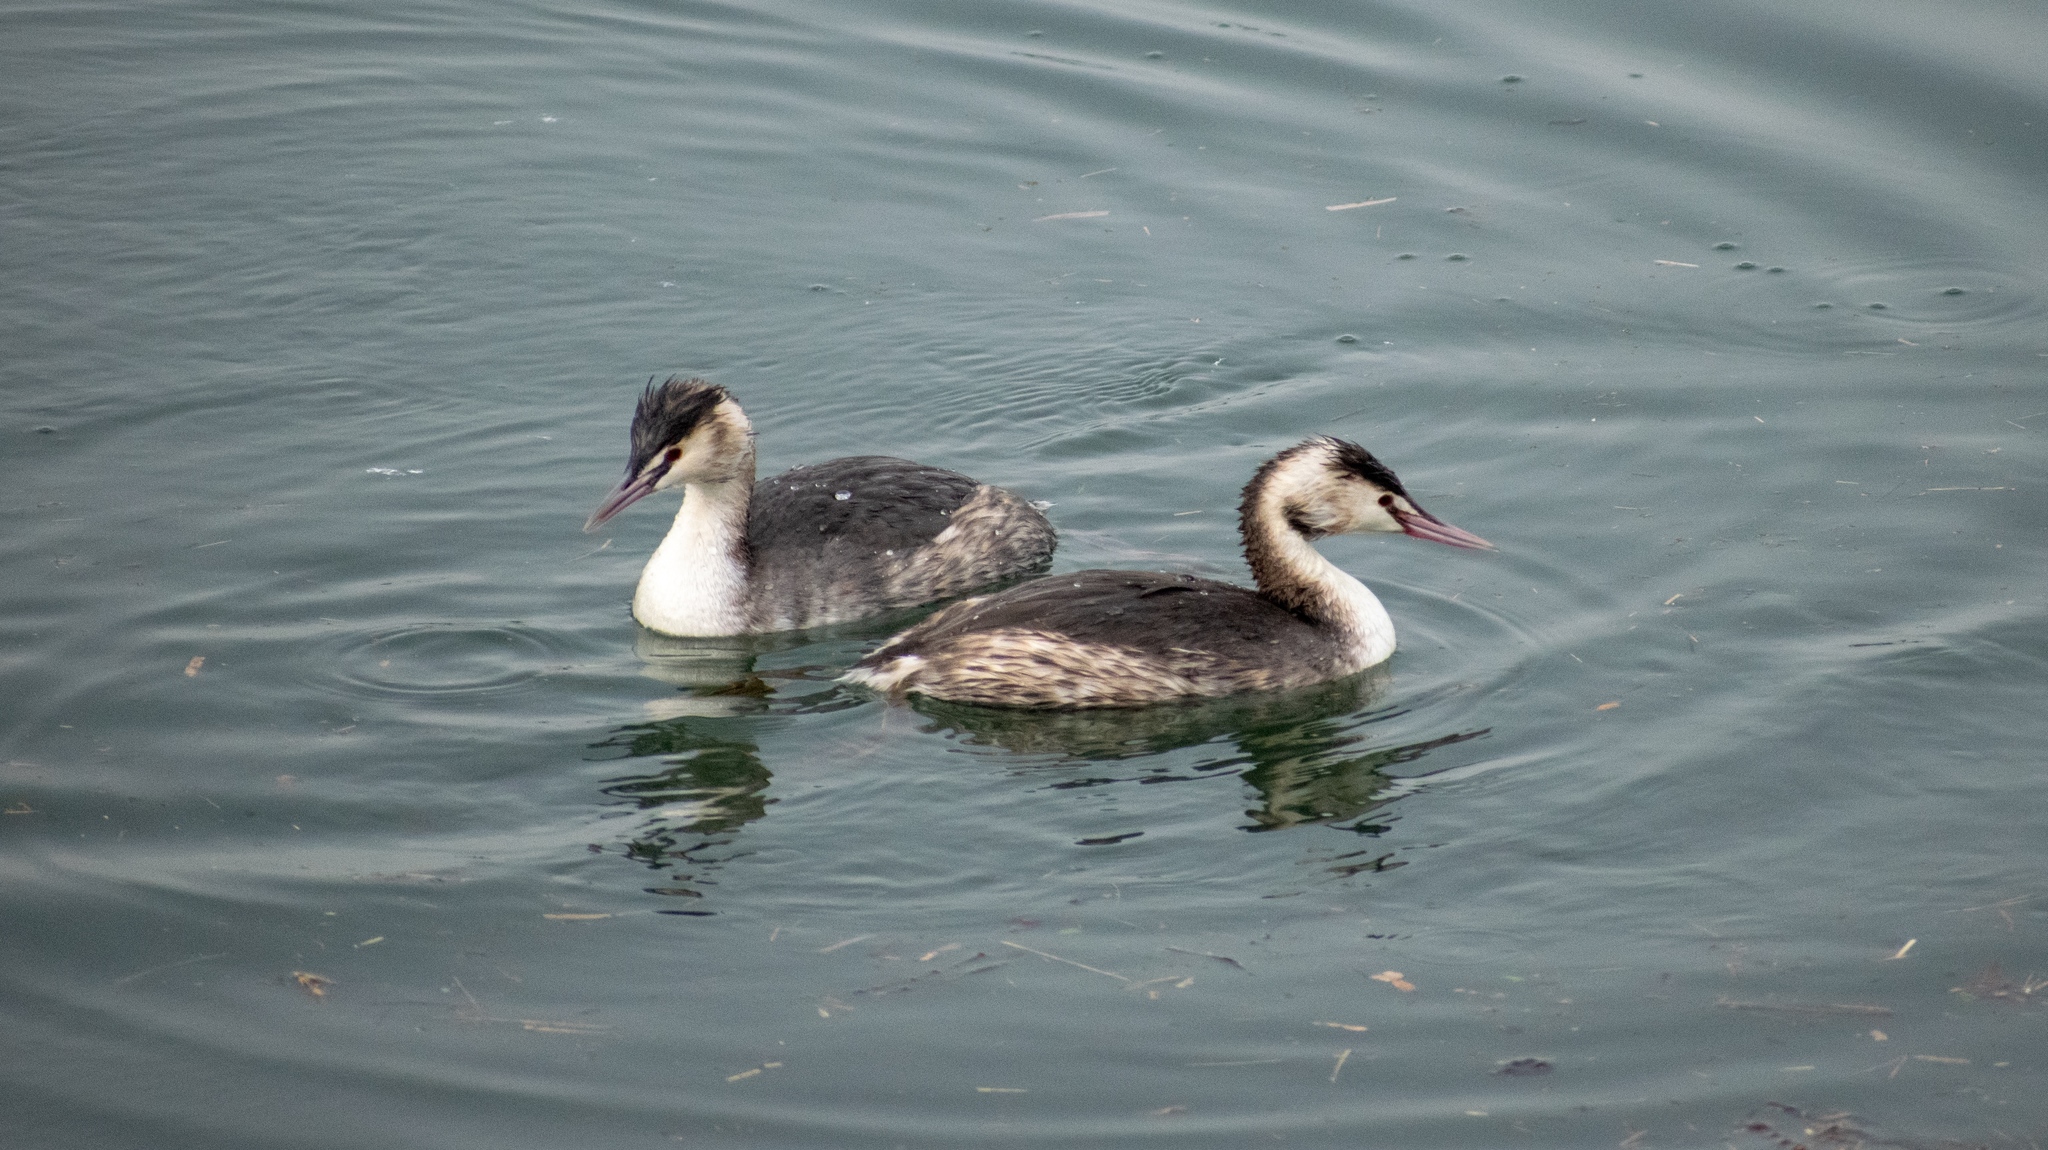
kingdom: Animalia
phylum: Chordata
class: Aves
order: Podicipediformes
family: Podicipedidae
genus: Podiceps
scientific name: Podiceps cristatus
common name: Great crested grebe
